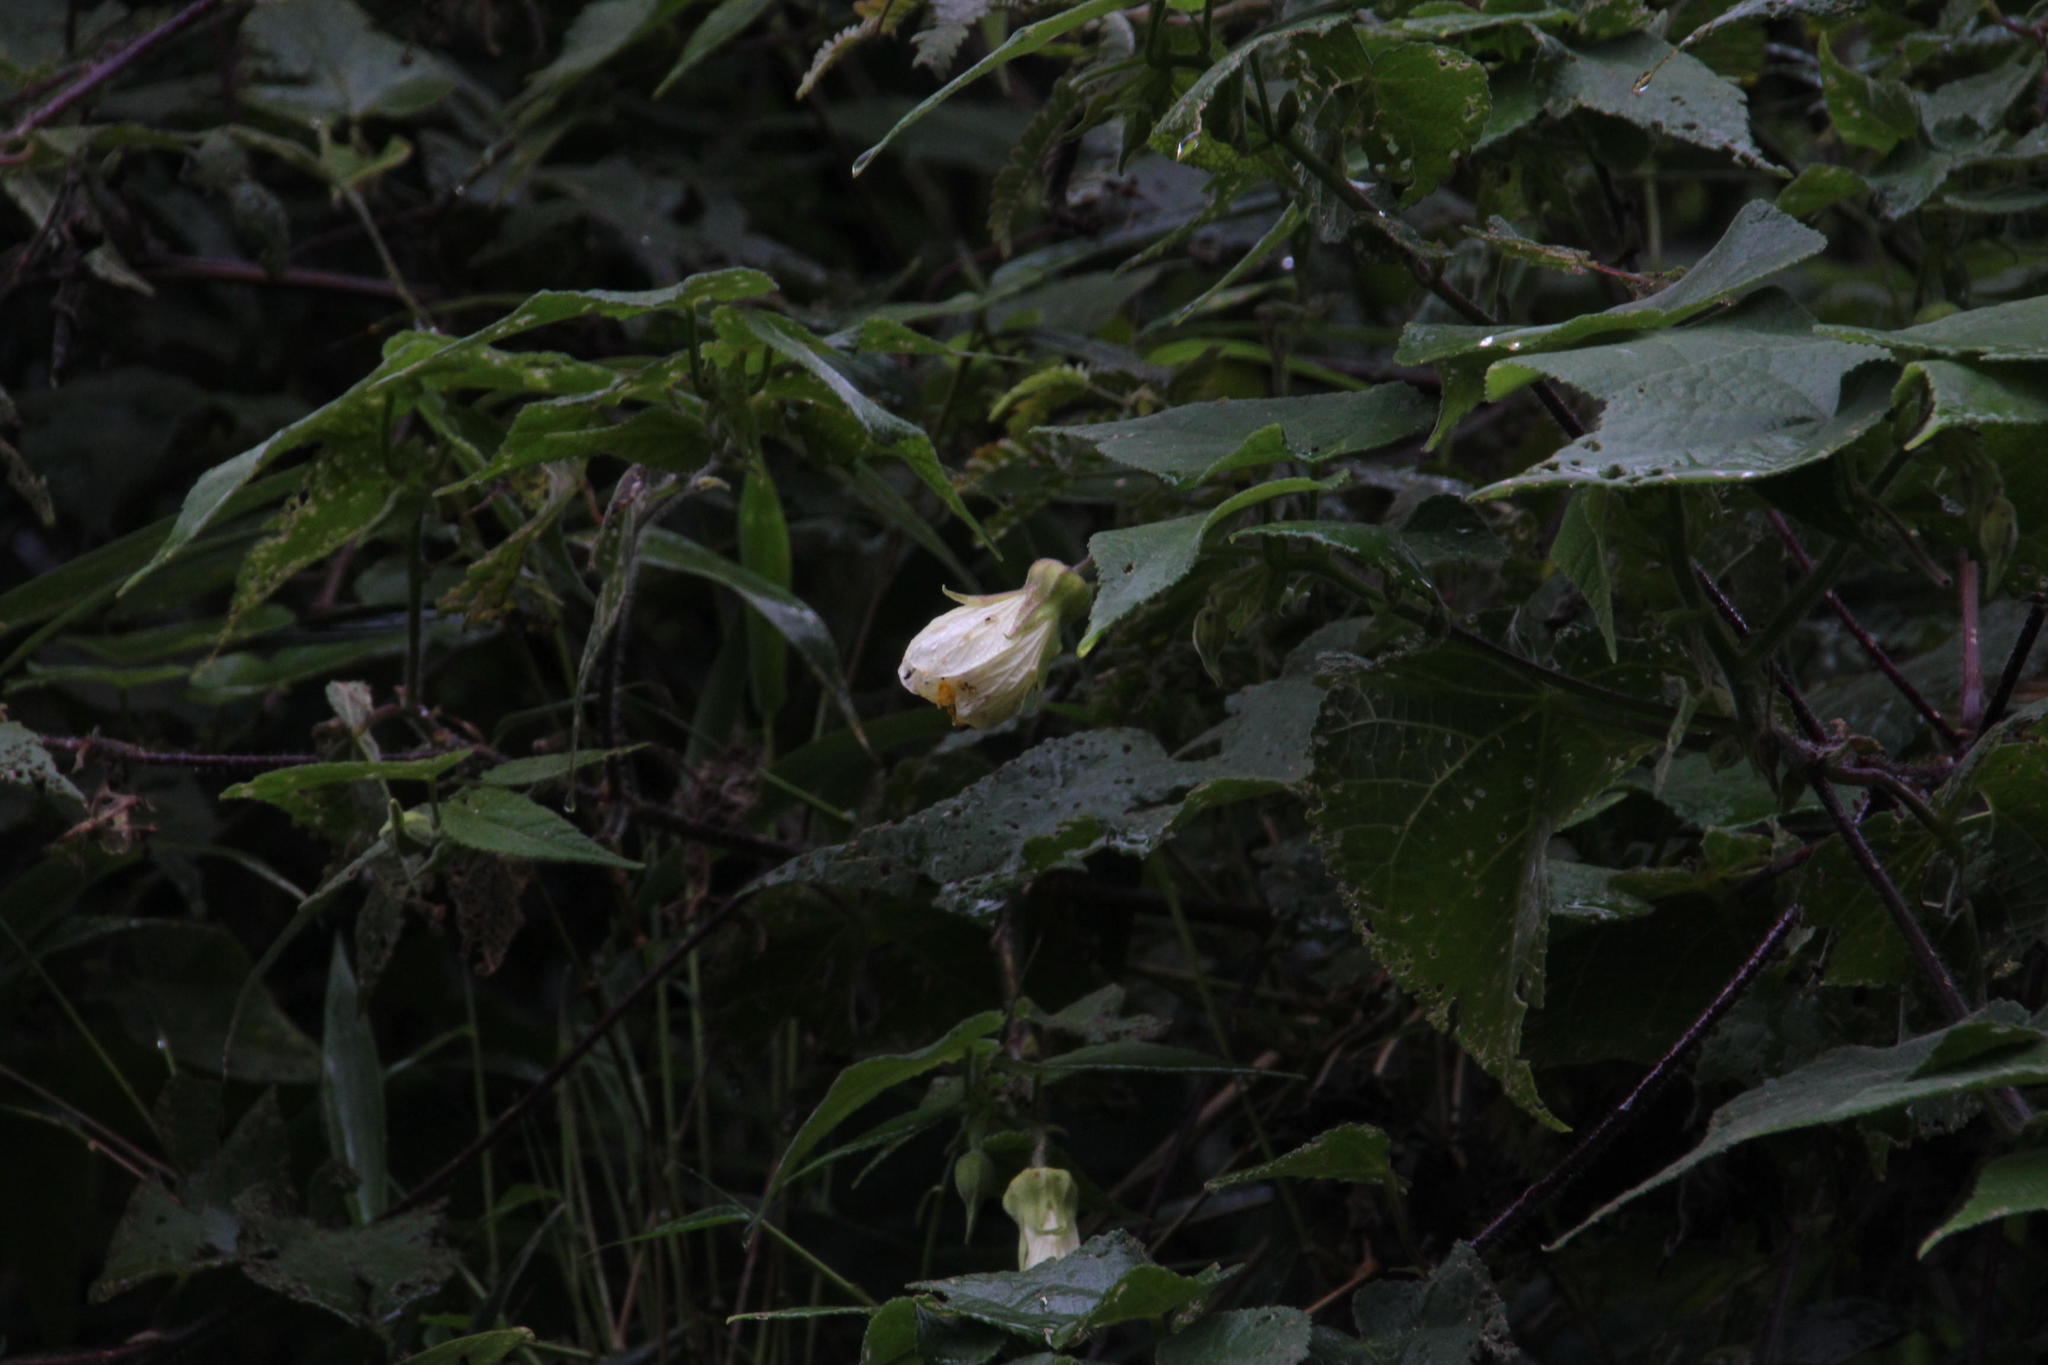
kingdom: Plantae
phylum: Tracheophyta
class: Magnoliopsida
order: Malvales
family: Malvaceae
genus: Callianthe
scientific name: Callianthe sylvatica
